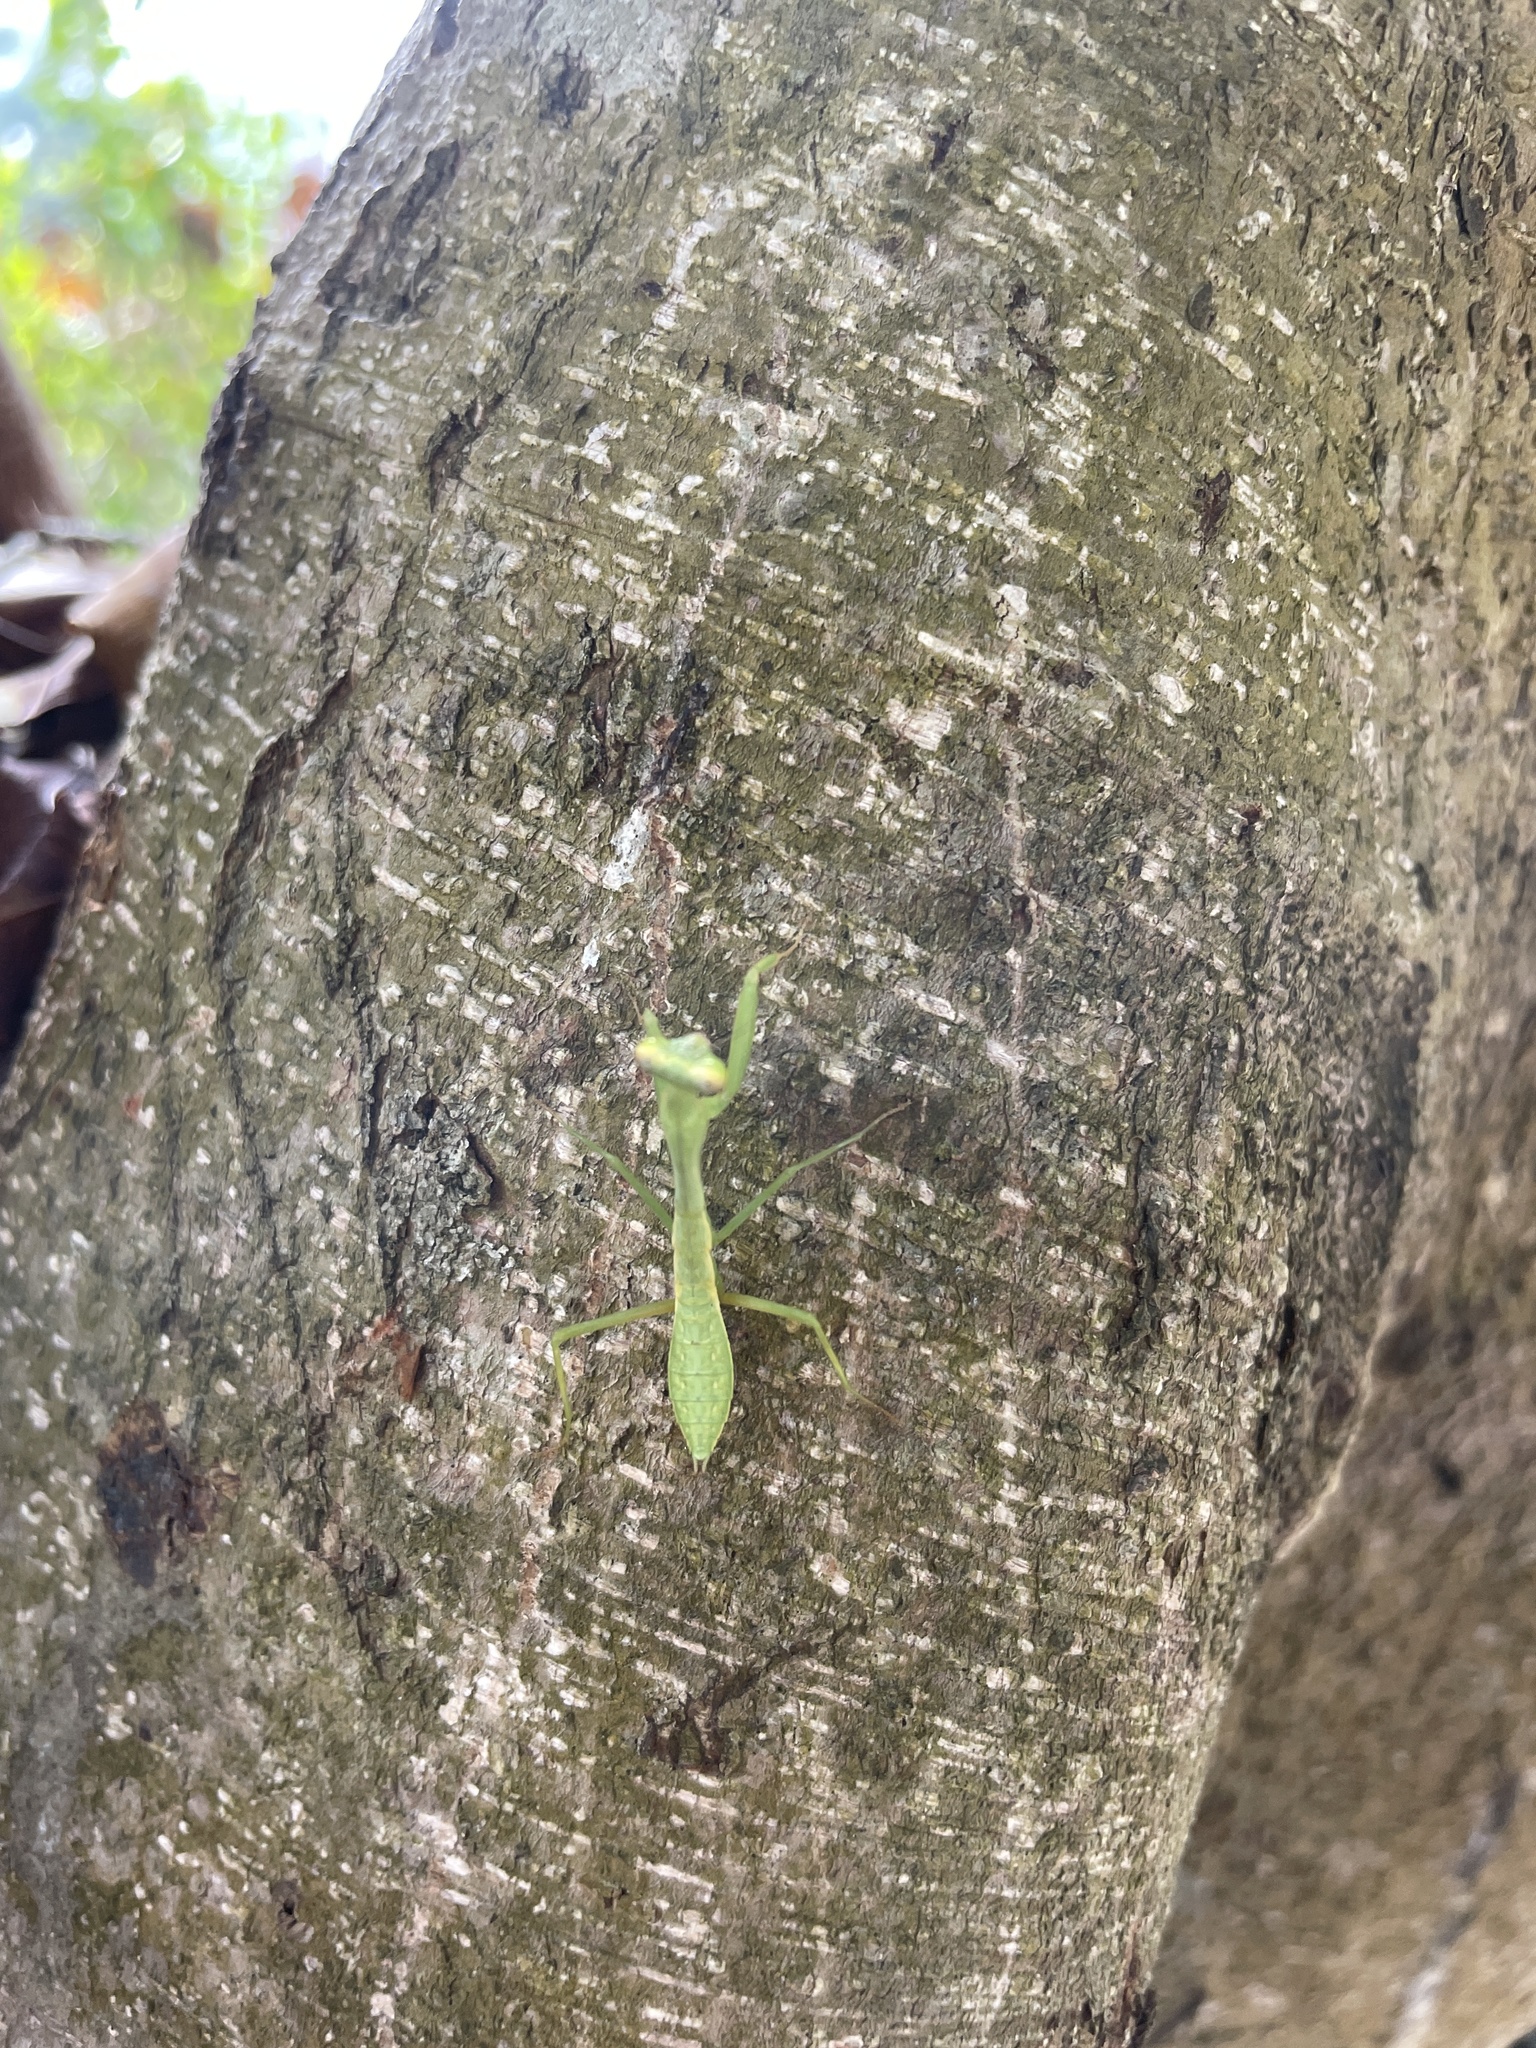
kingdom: Animalia
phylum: Arthropoda
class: Insecta
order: Mantodea
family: Mantidae
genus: Titanodula
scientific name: Titanodula formosana
